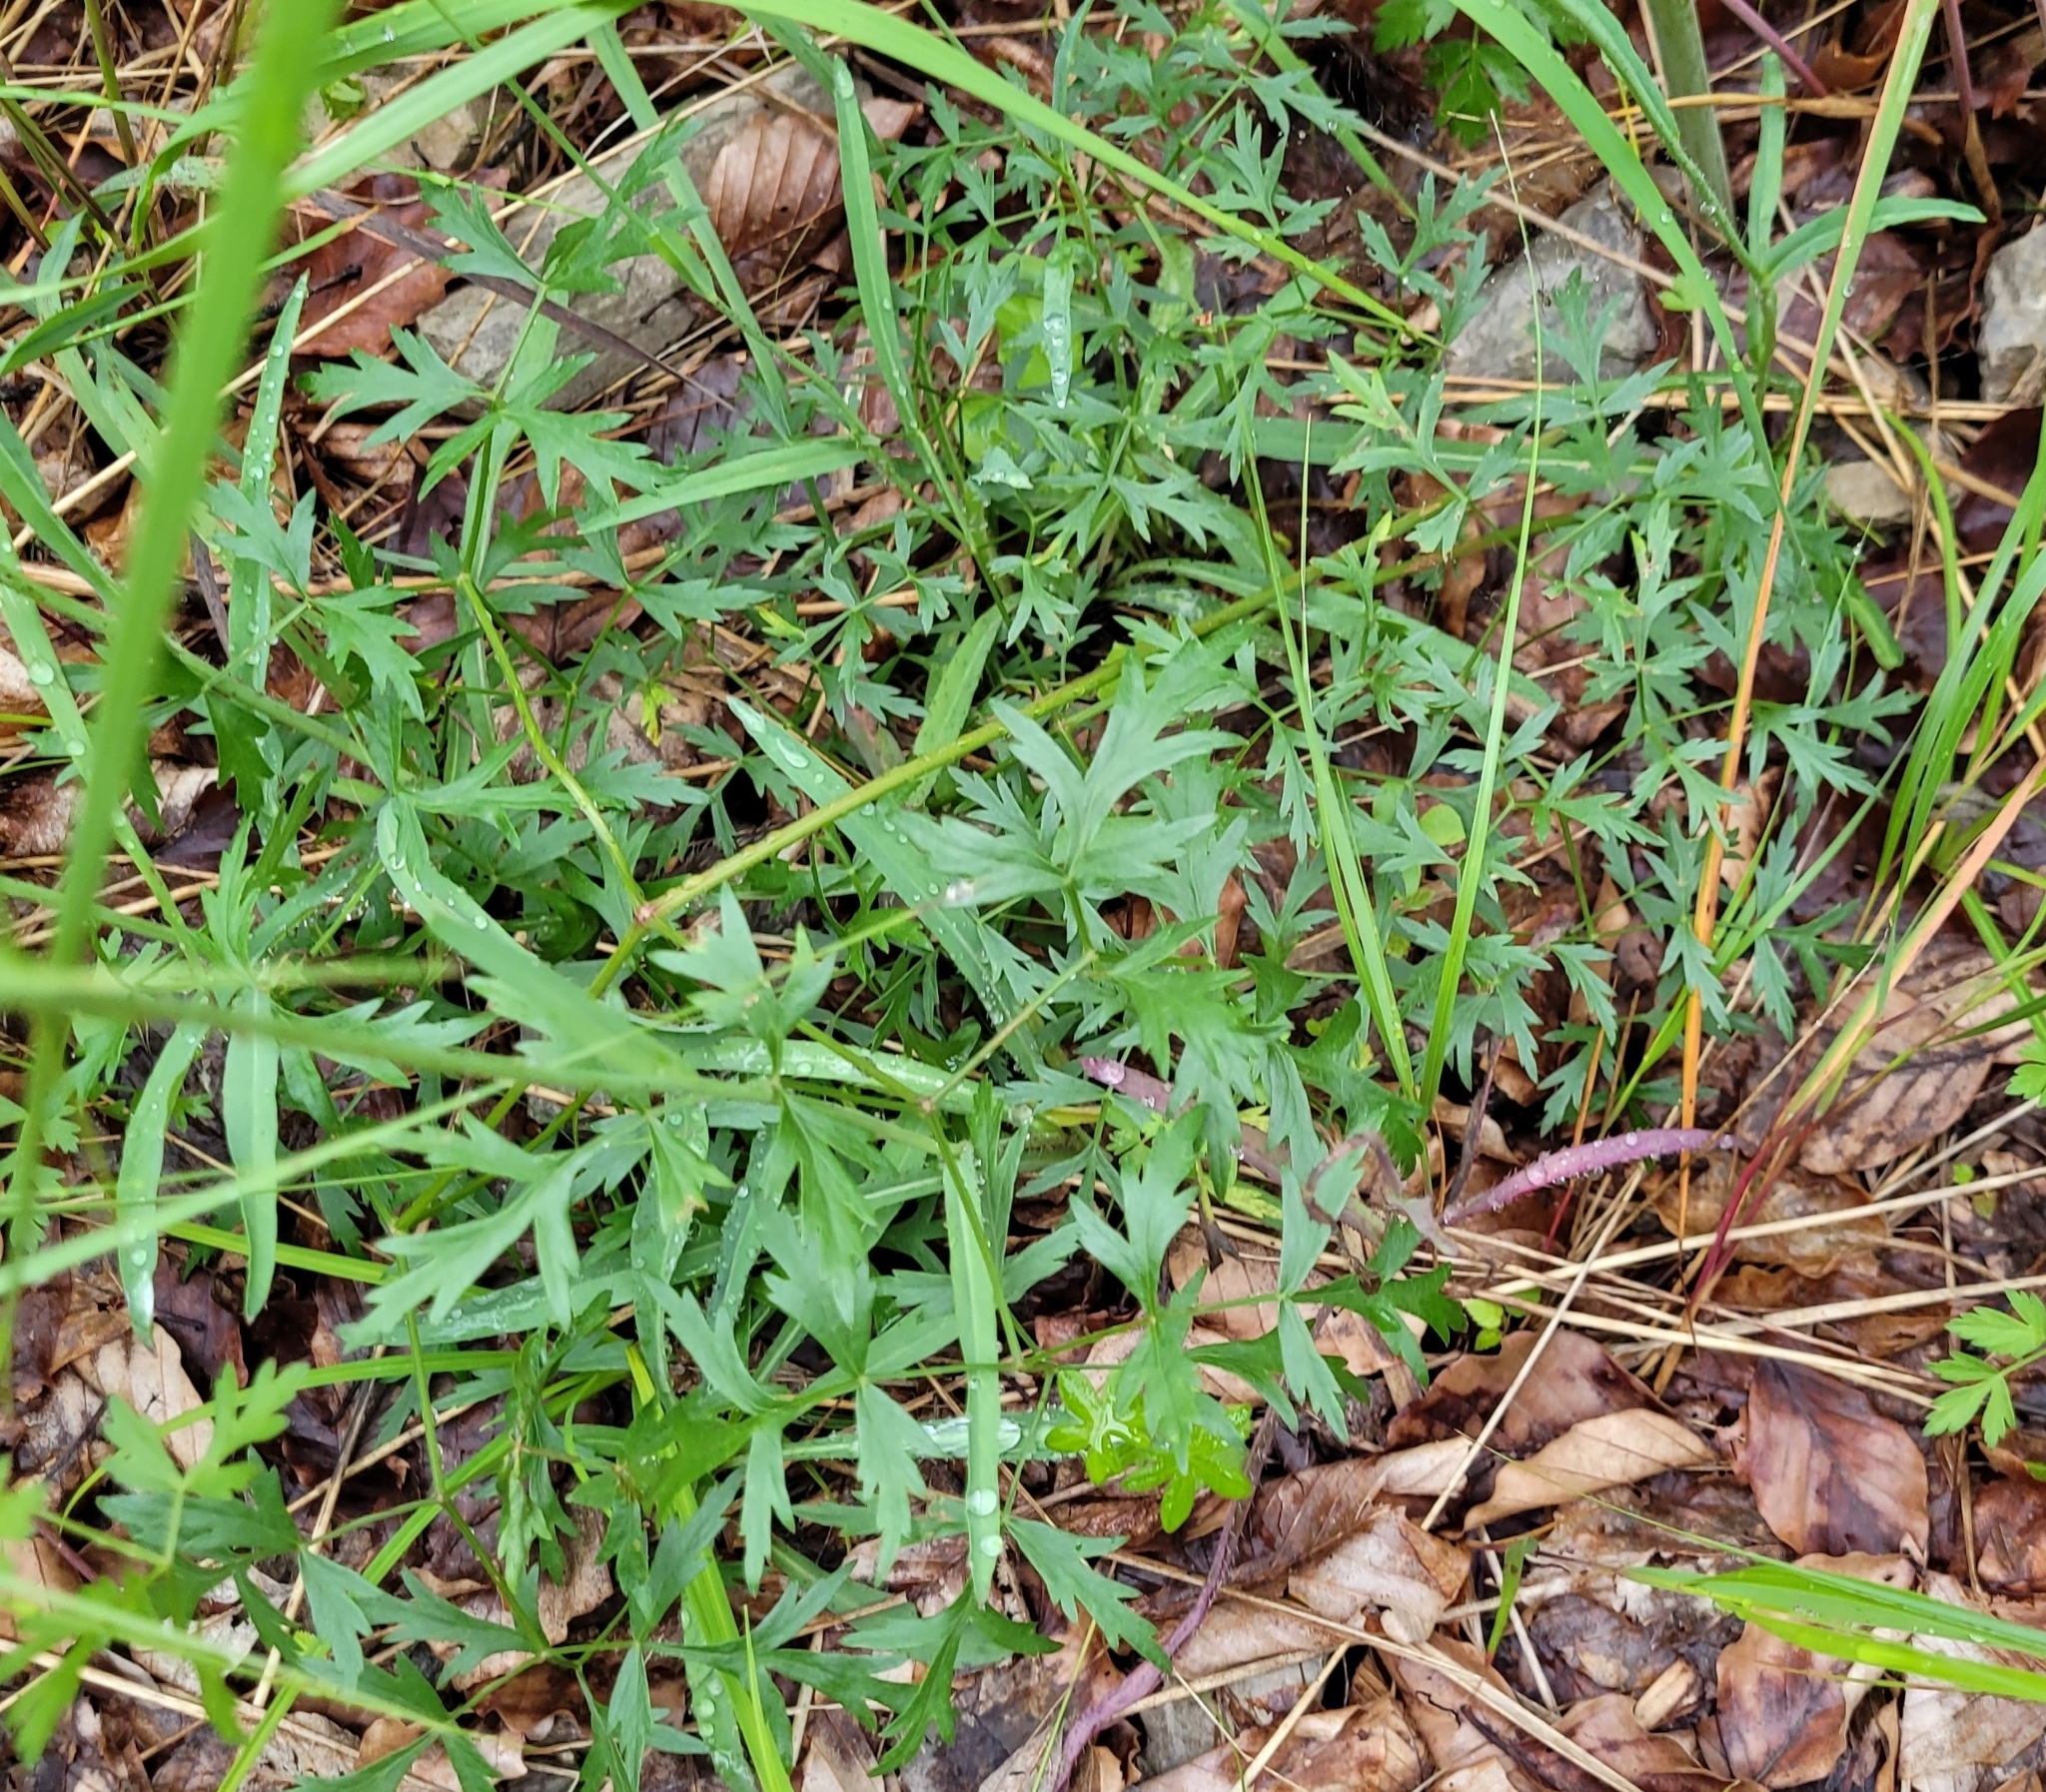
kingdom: Plantae
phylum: Tracheophyta
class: Magnoliopsida
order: Apiales
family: Apiaceae
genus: Oreoselinum
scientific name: Oreoselinum nigrum
